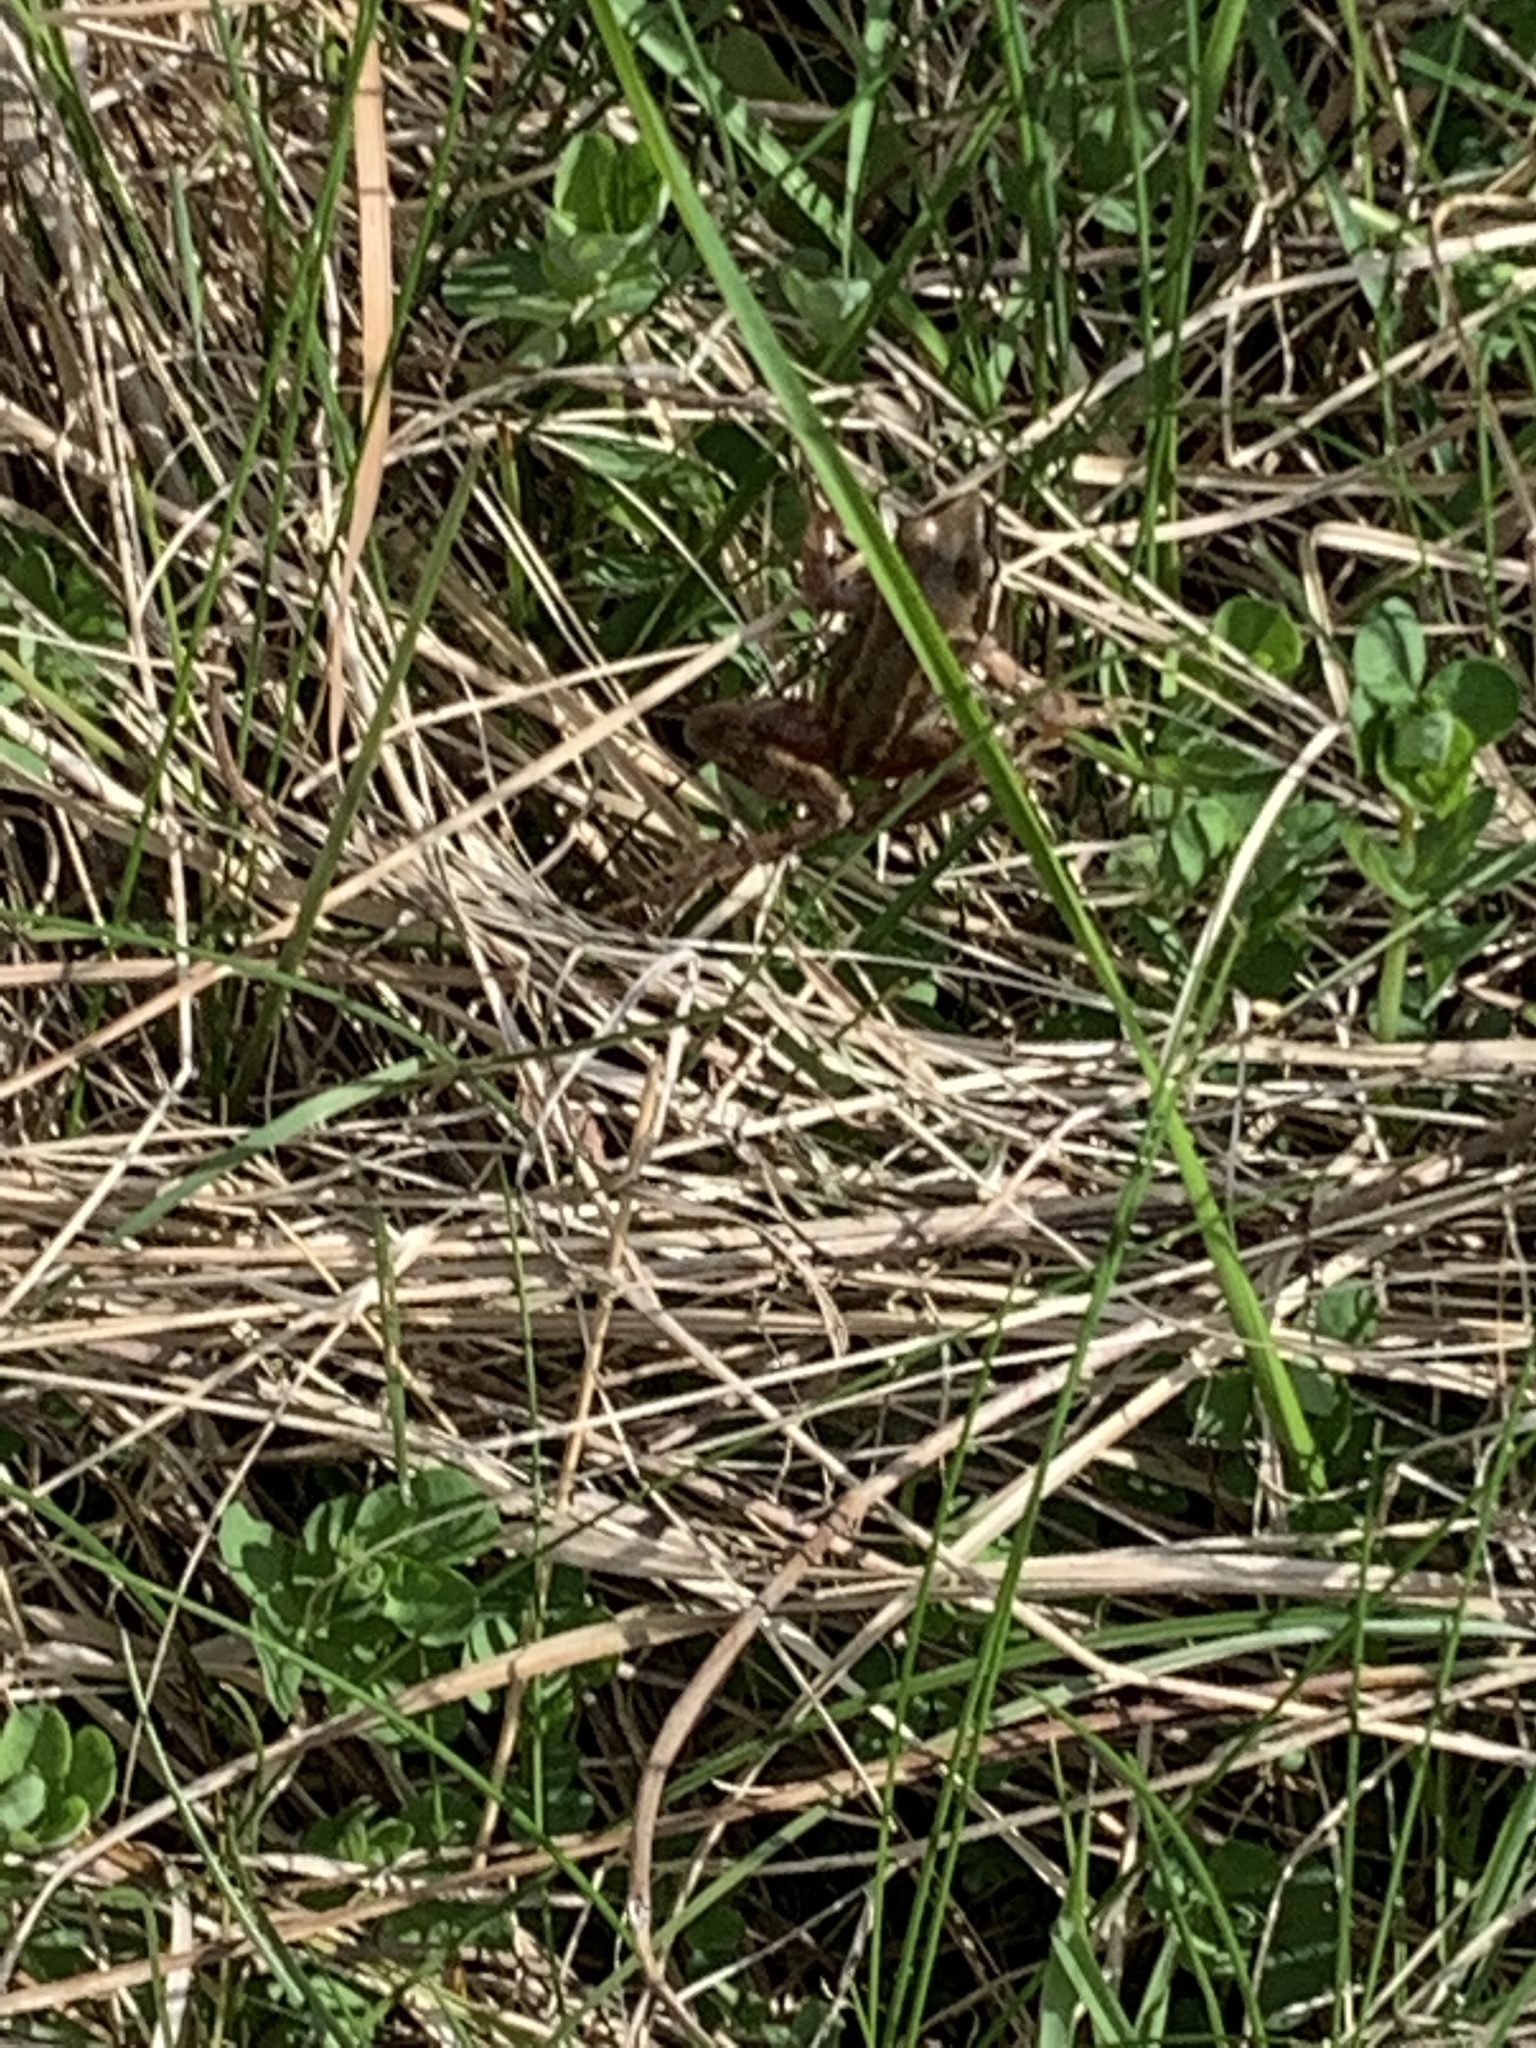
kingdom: Animalia
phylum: Chordata
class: Amphibia
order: Anura
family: Ranidae
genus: Rana
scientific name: Rana arvalis
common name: Moor frog
